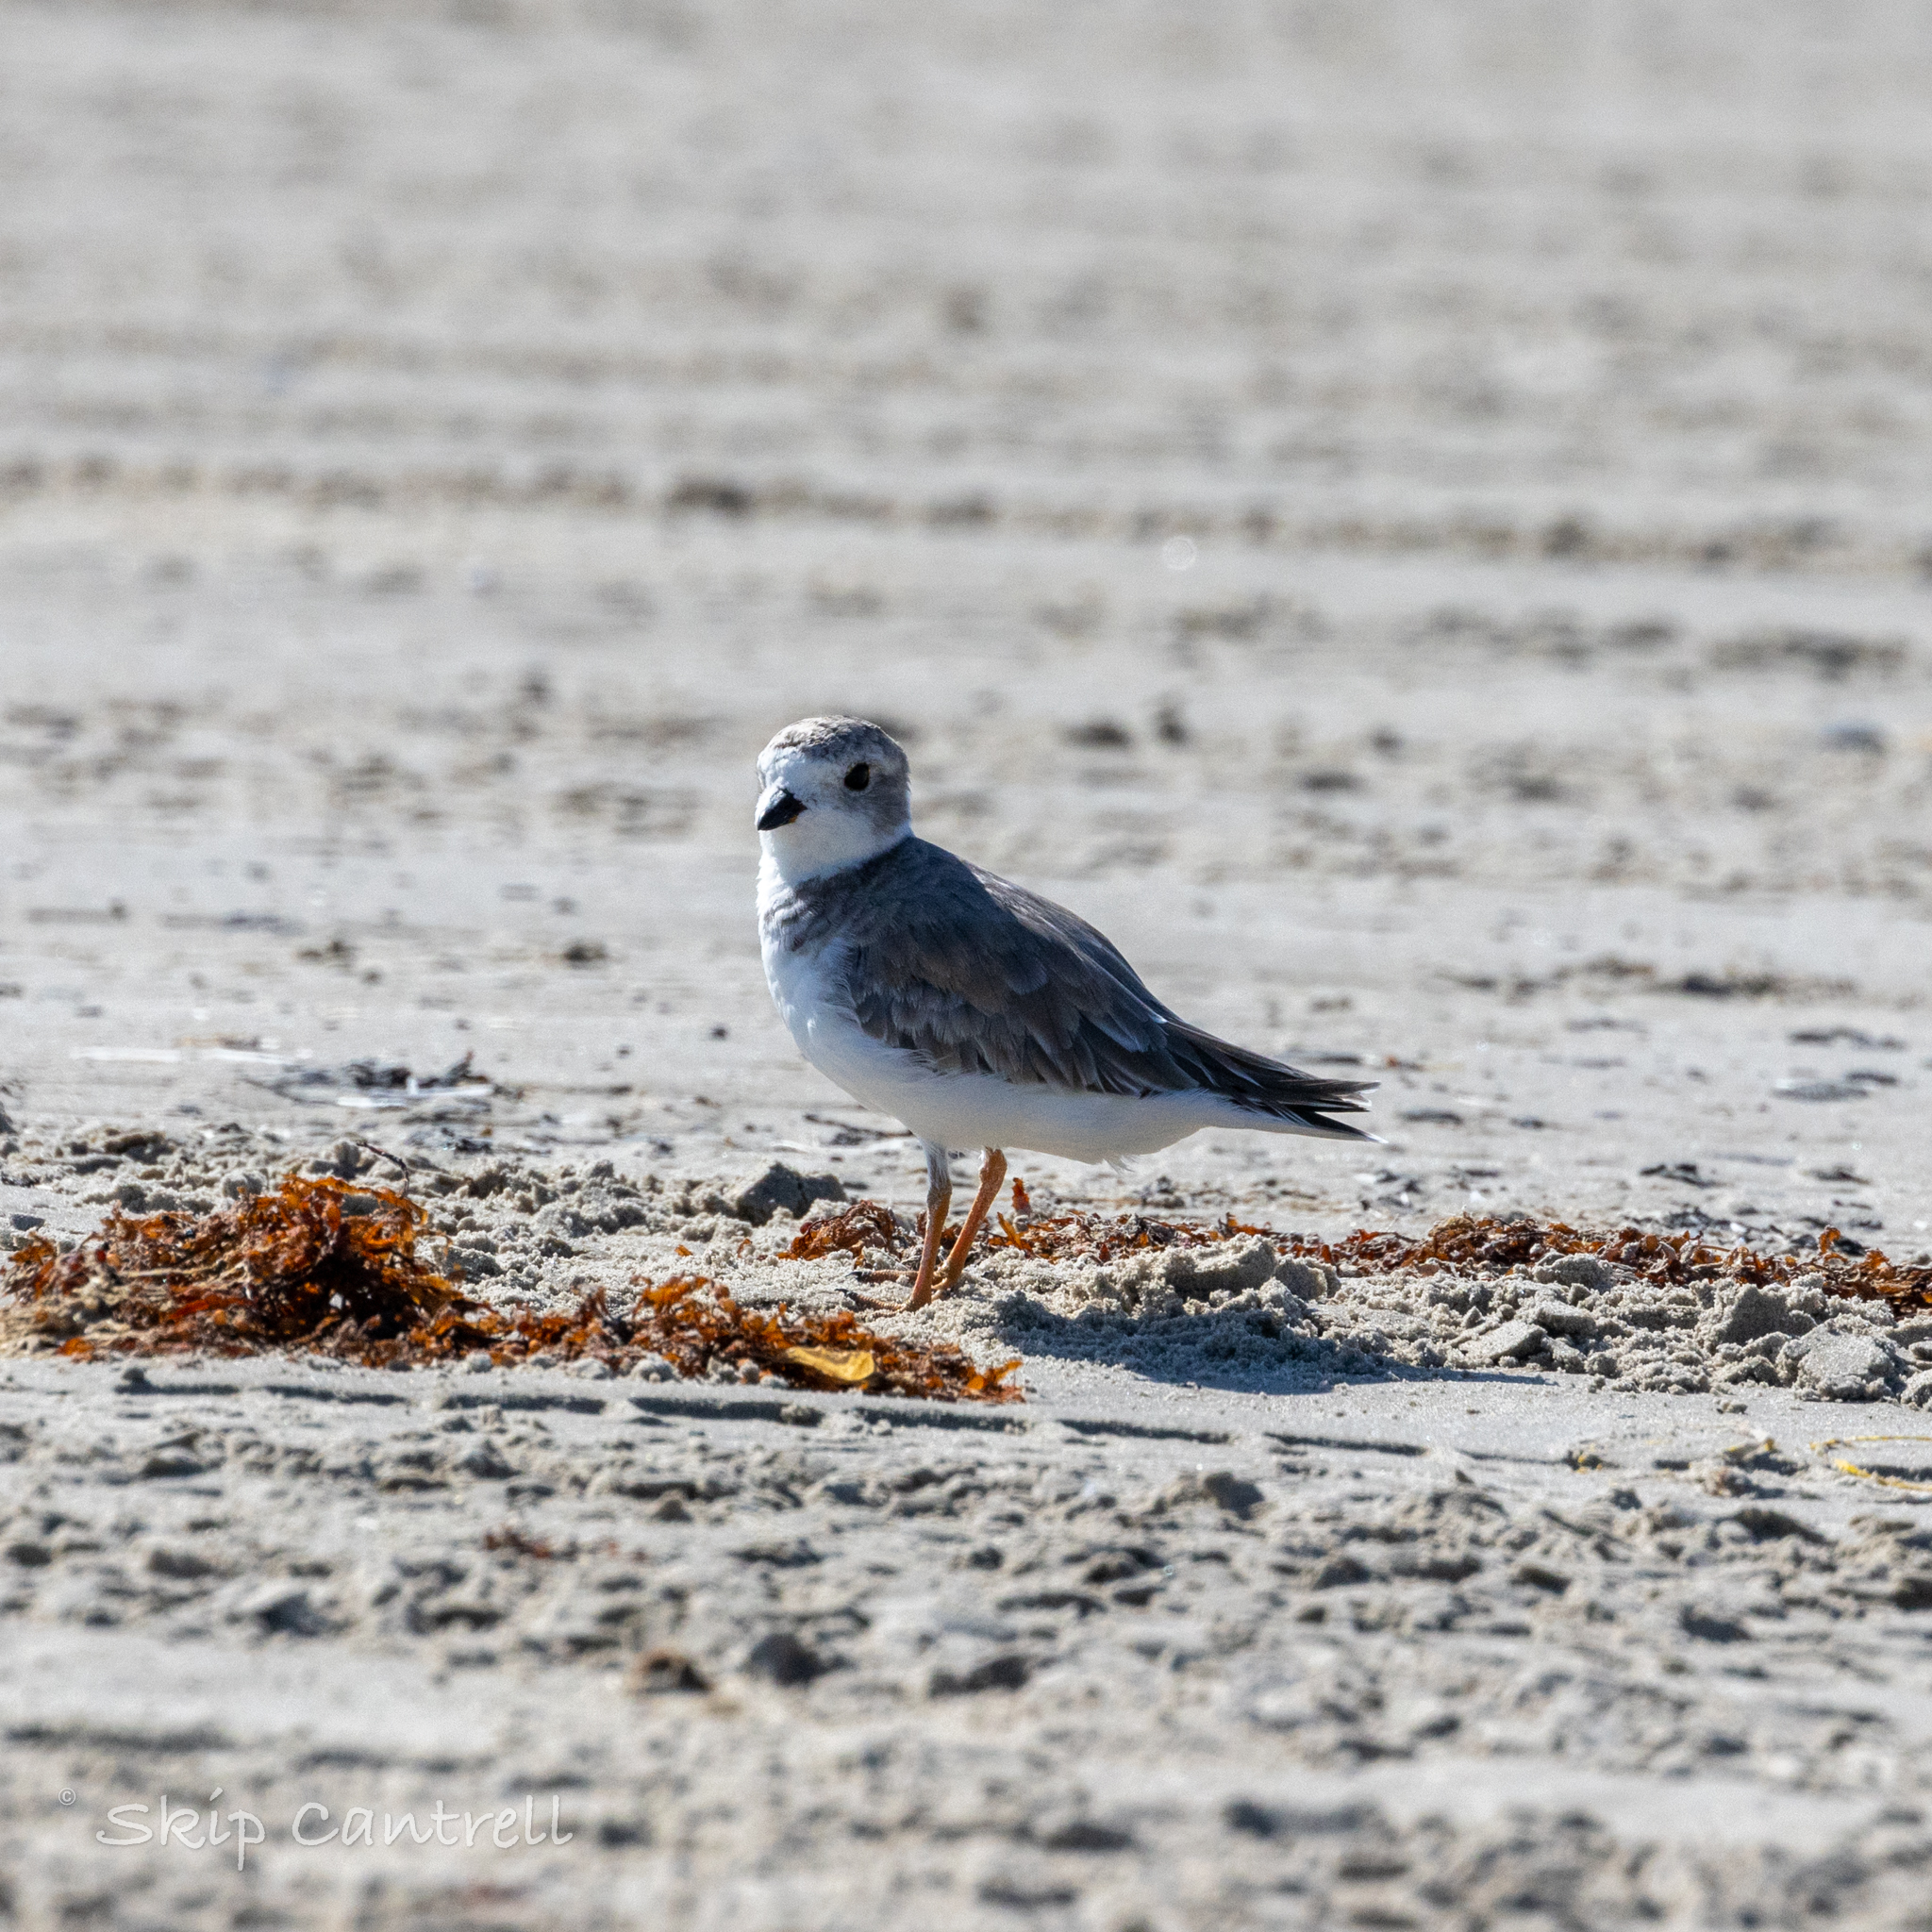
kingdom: Animalia
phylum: Chordata
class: Aves
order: Charadriiformes
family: Charadriidae
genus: Charadrius
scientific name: Charadrius melodus
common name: Piping plover
